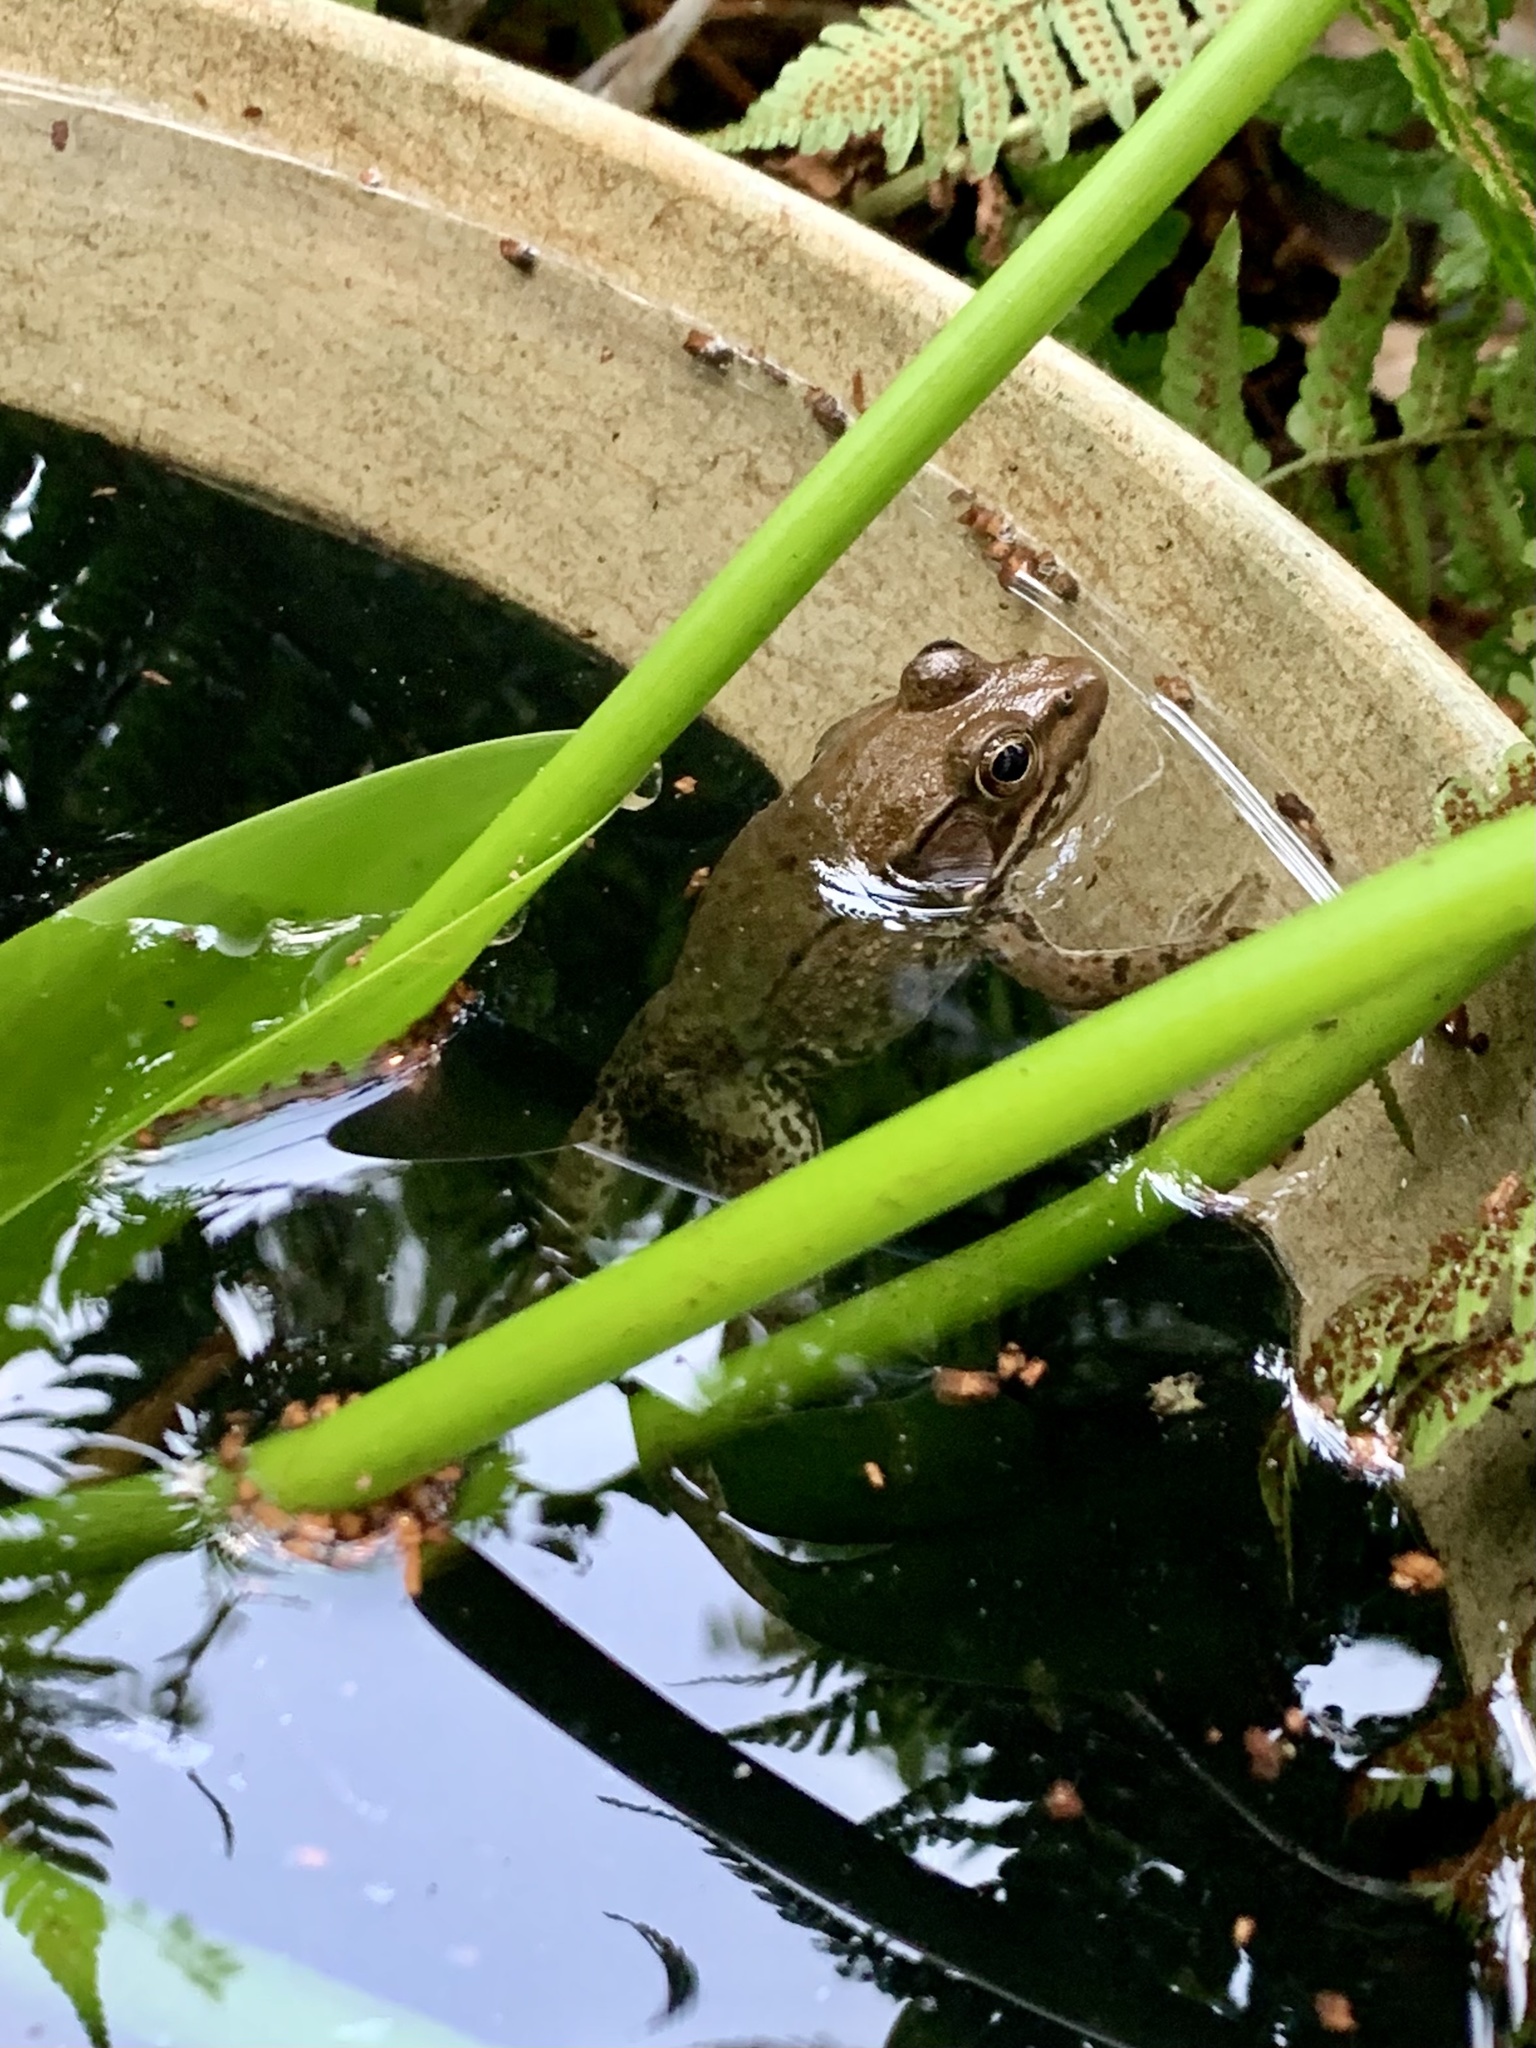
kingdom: Animalia
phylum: Chordata
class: Amphibia
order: Anura
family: Ranidae
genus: Lithobates
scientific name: Lithobates clamitans
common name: Green frog
